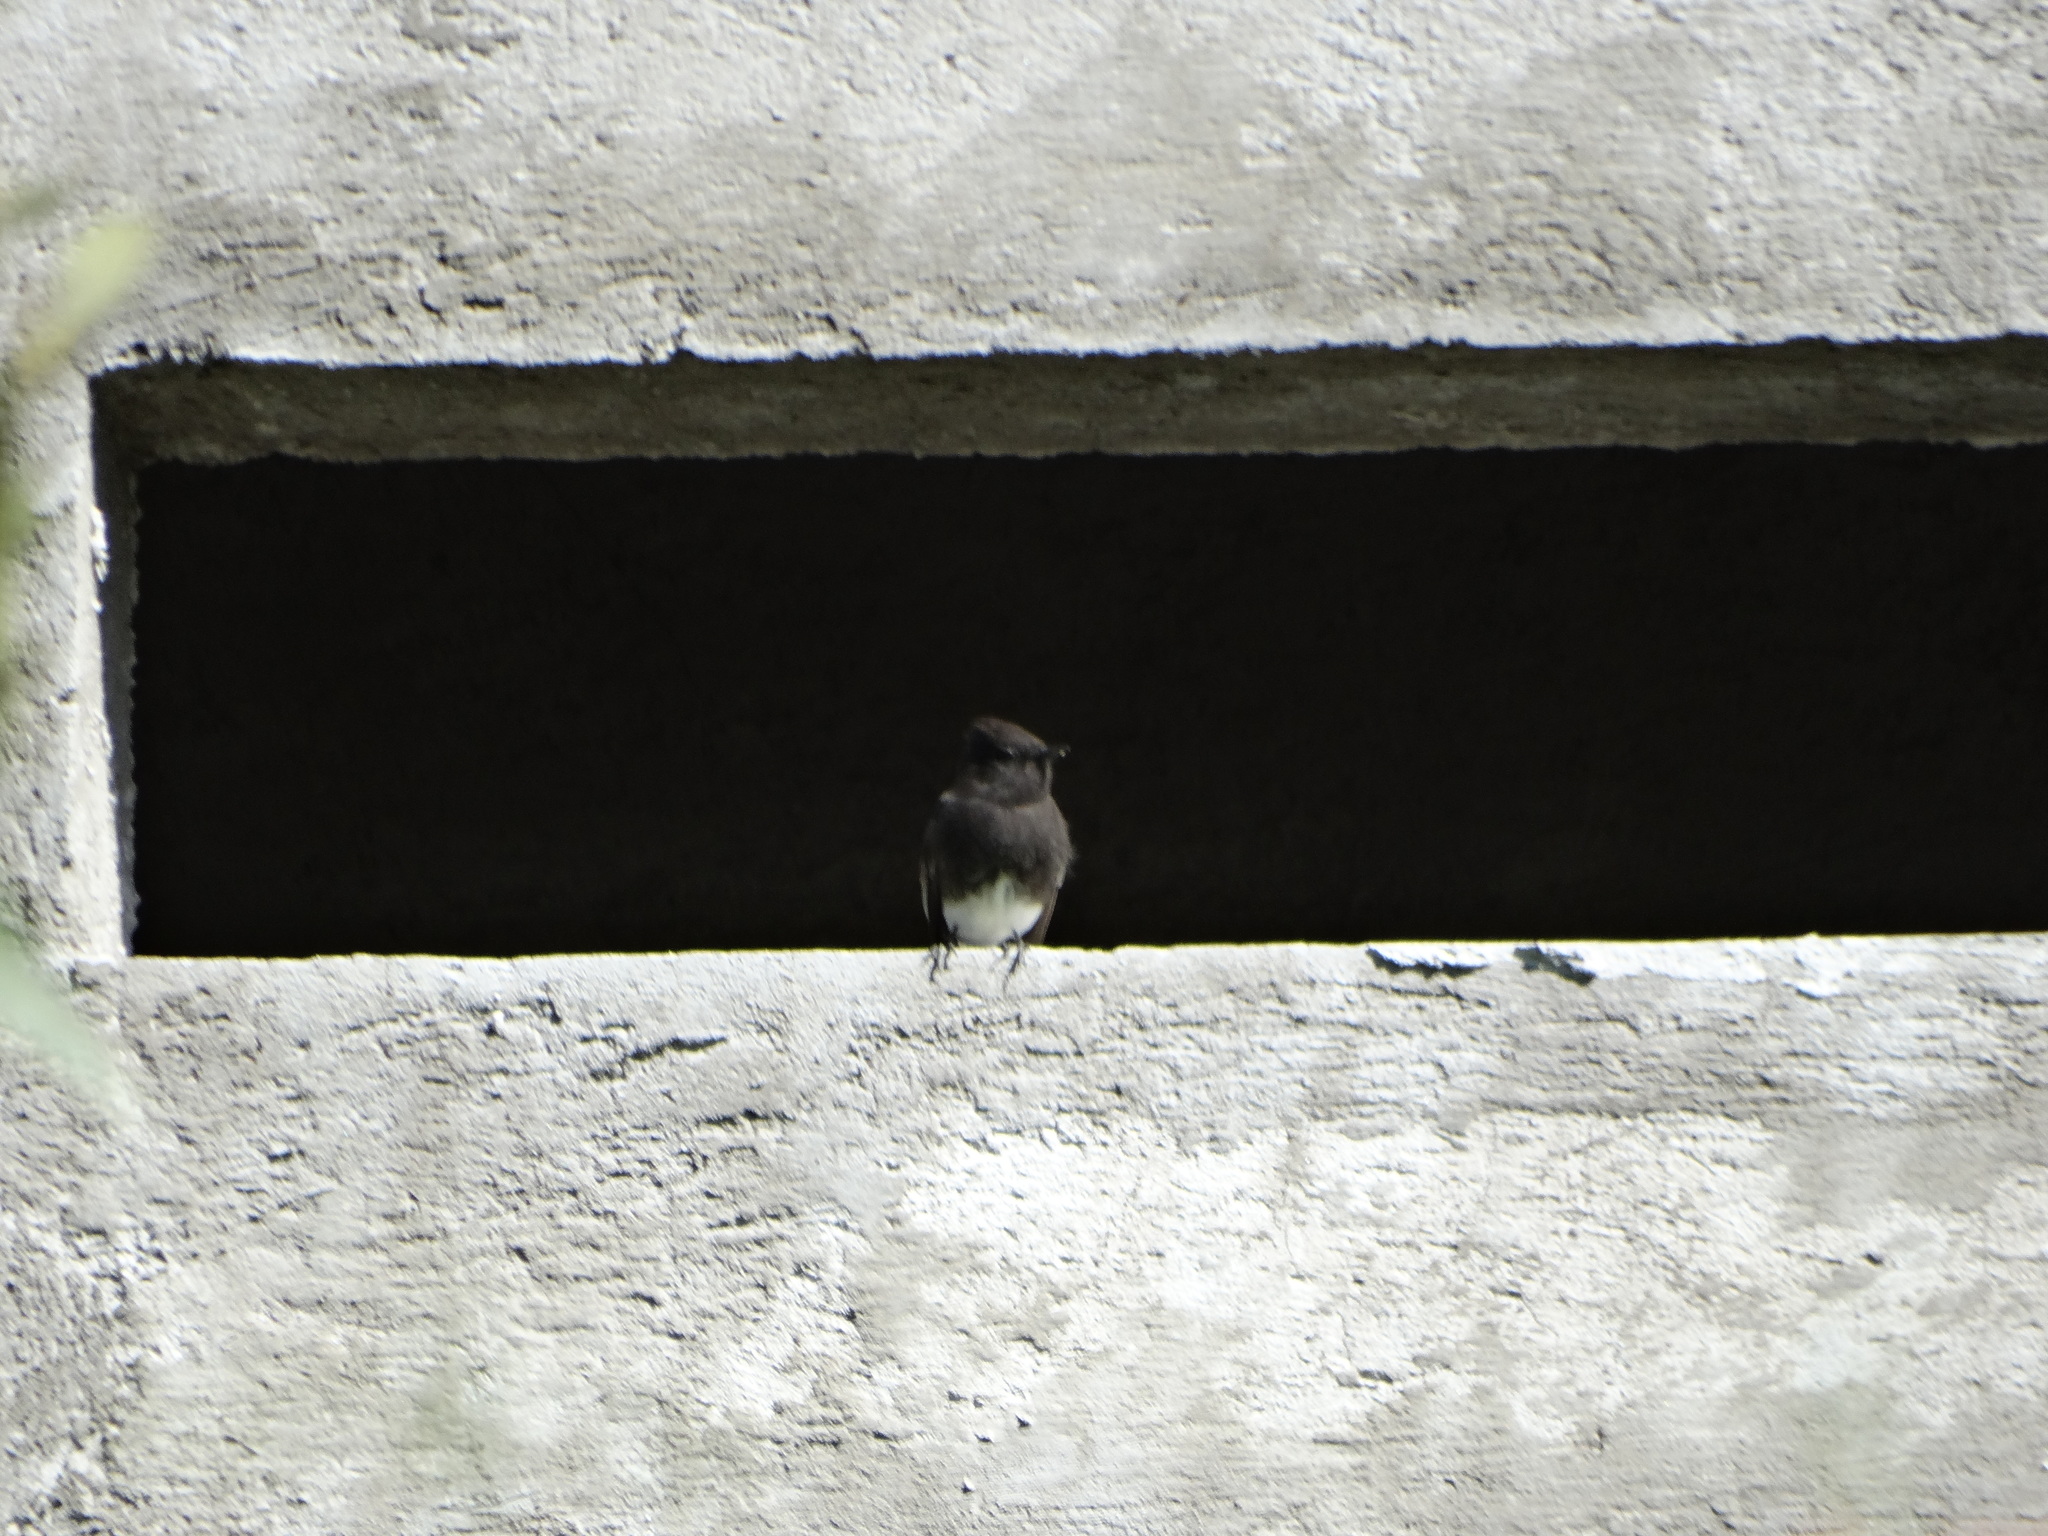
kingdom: Animalia
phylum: Chordata
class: Aves
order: Passeriformes
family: Tyrannidae
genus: Sayornis
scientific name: Sayornis nigricans
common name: Black phoebe
